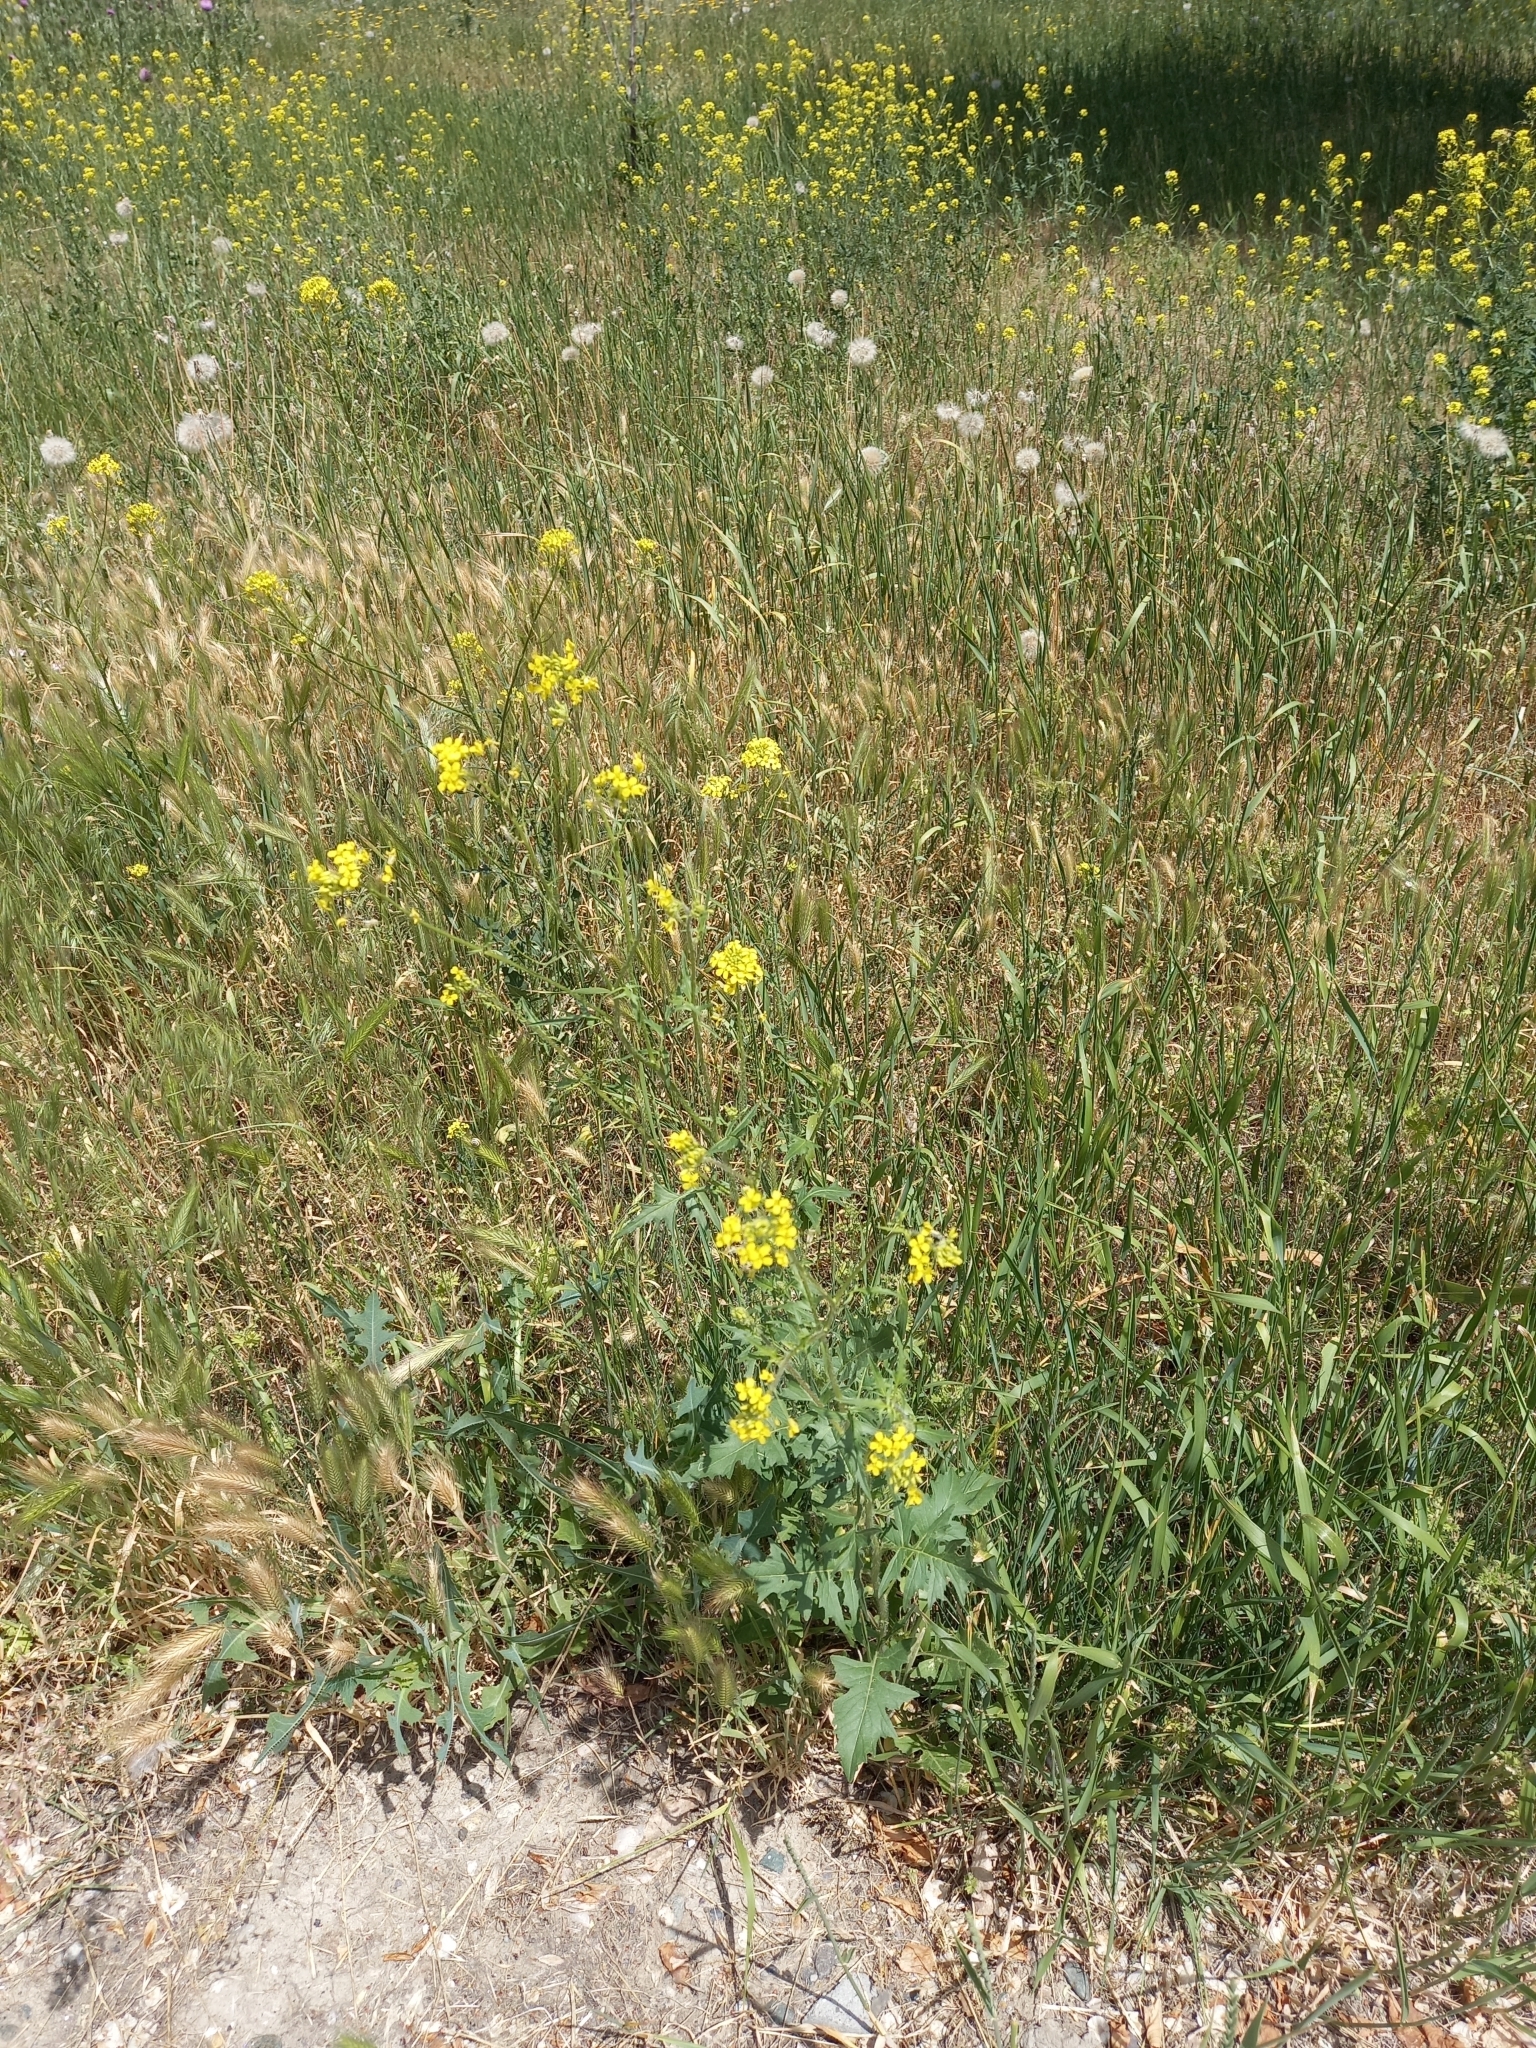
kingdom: Plantae
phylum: Tracheophyta
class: Magnoliopsida
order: Brassicales
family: Brassicaceae
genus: Sisymbrium
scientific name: Sisymbrium loeselii
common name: False london-rocket
